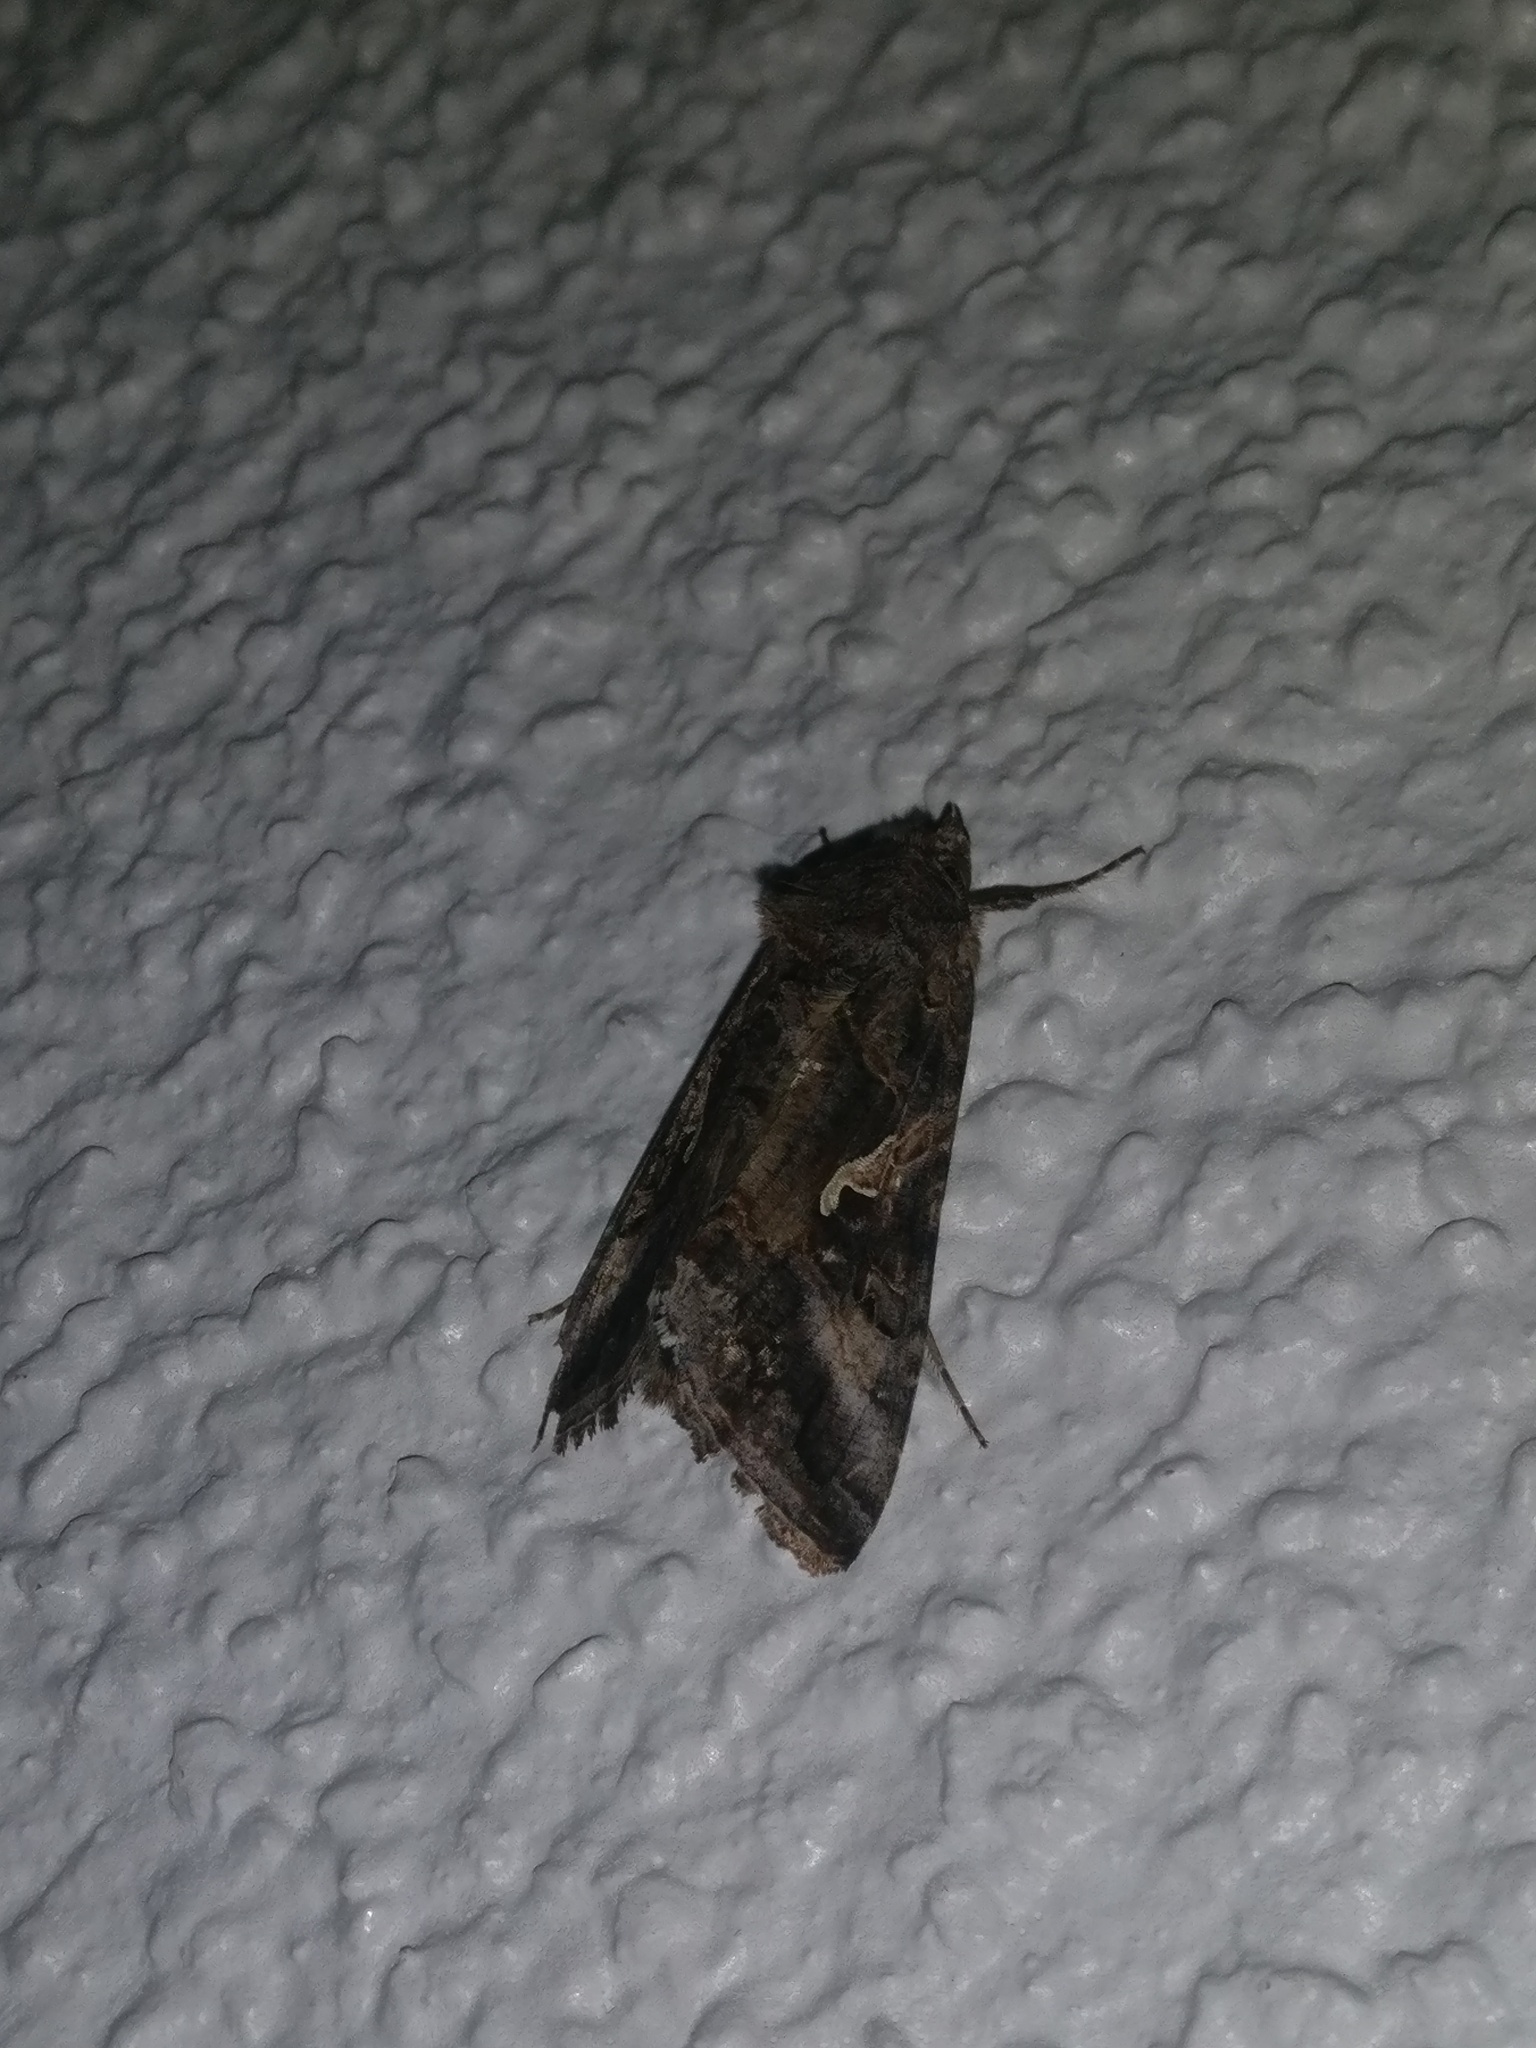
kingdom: Animalia
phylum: Arthropoda
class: Insecta
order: Lepidoptera
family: Noctuidae
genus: Autographa
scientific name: Autographa gamma
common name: Silver y
